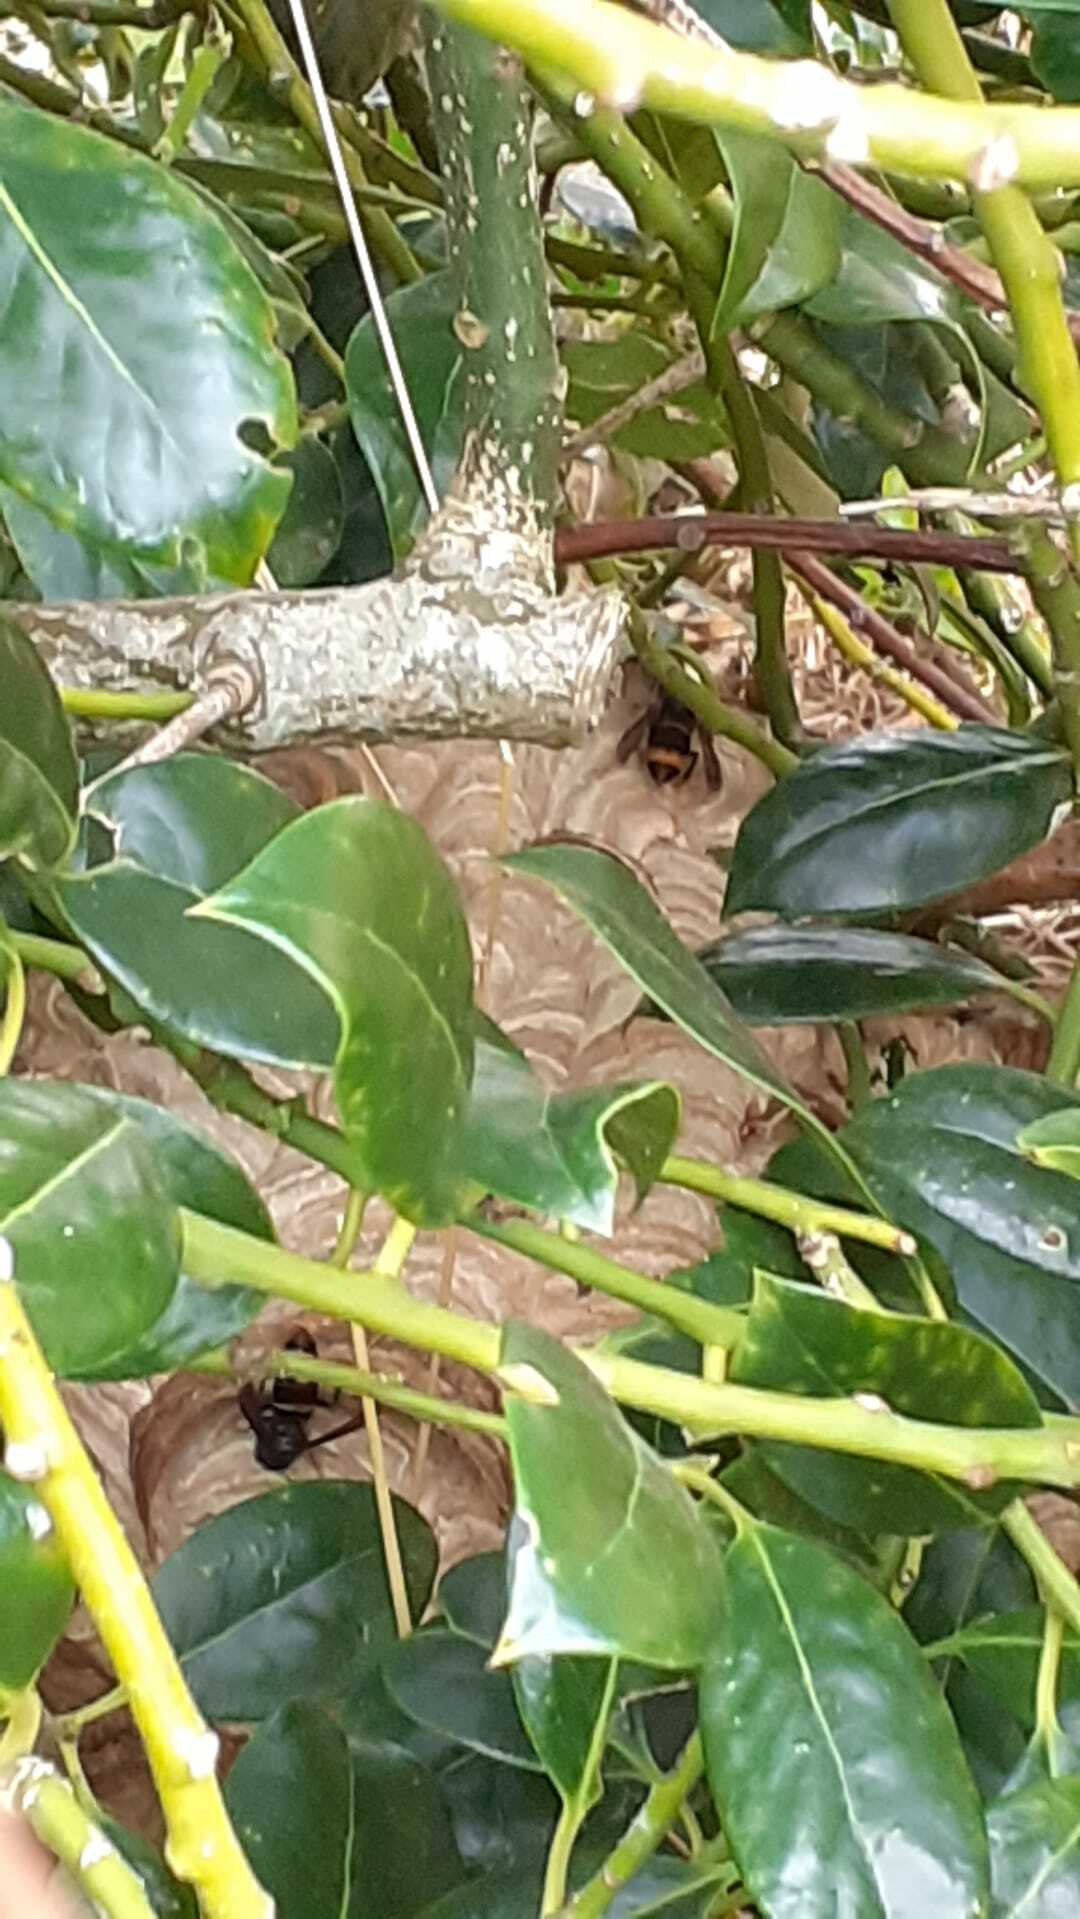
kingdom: Animalia
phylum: Arthropoda
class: Insecta
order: Hymenoptera
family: Vespidae
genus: Vespa
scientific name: Vespa velutina
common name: Asian hornet
